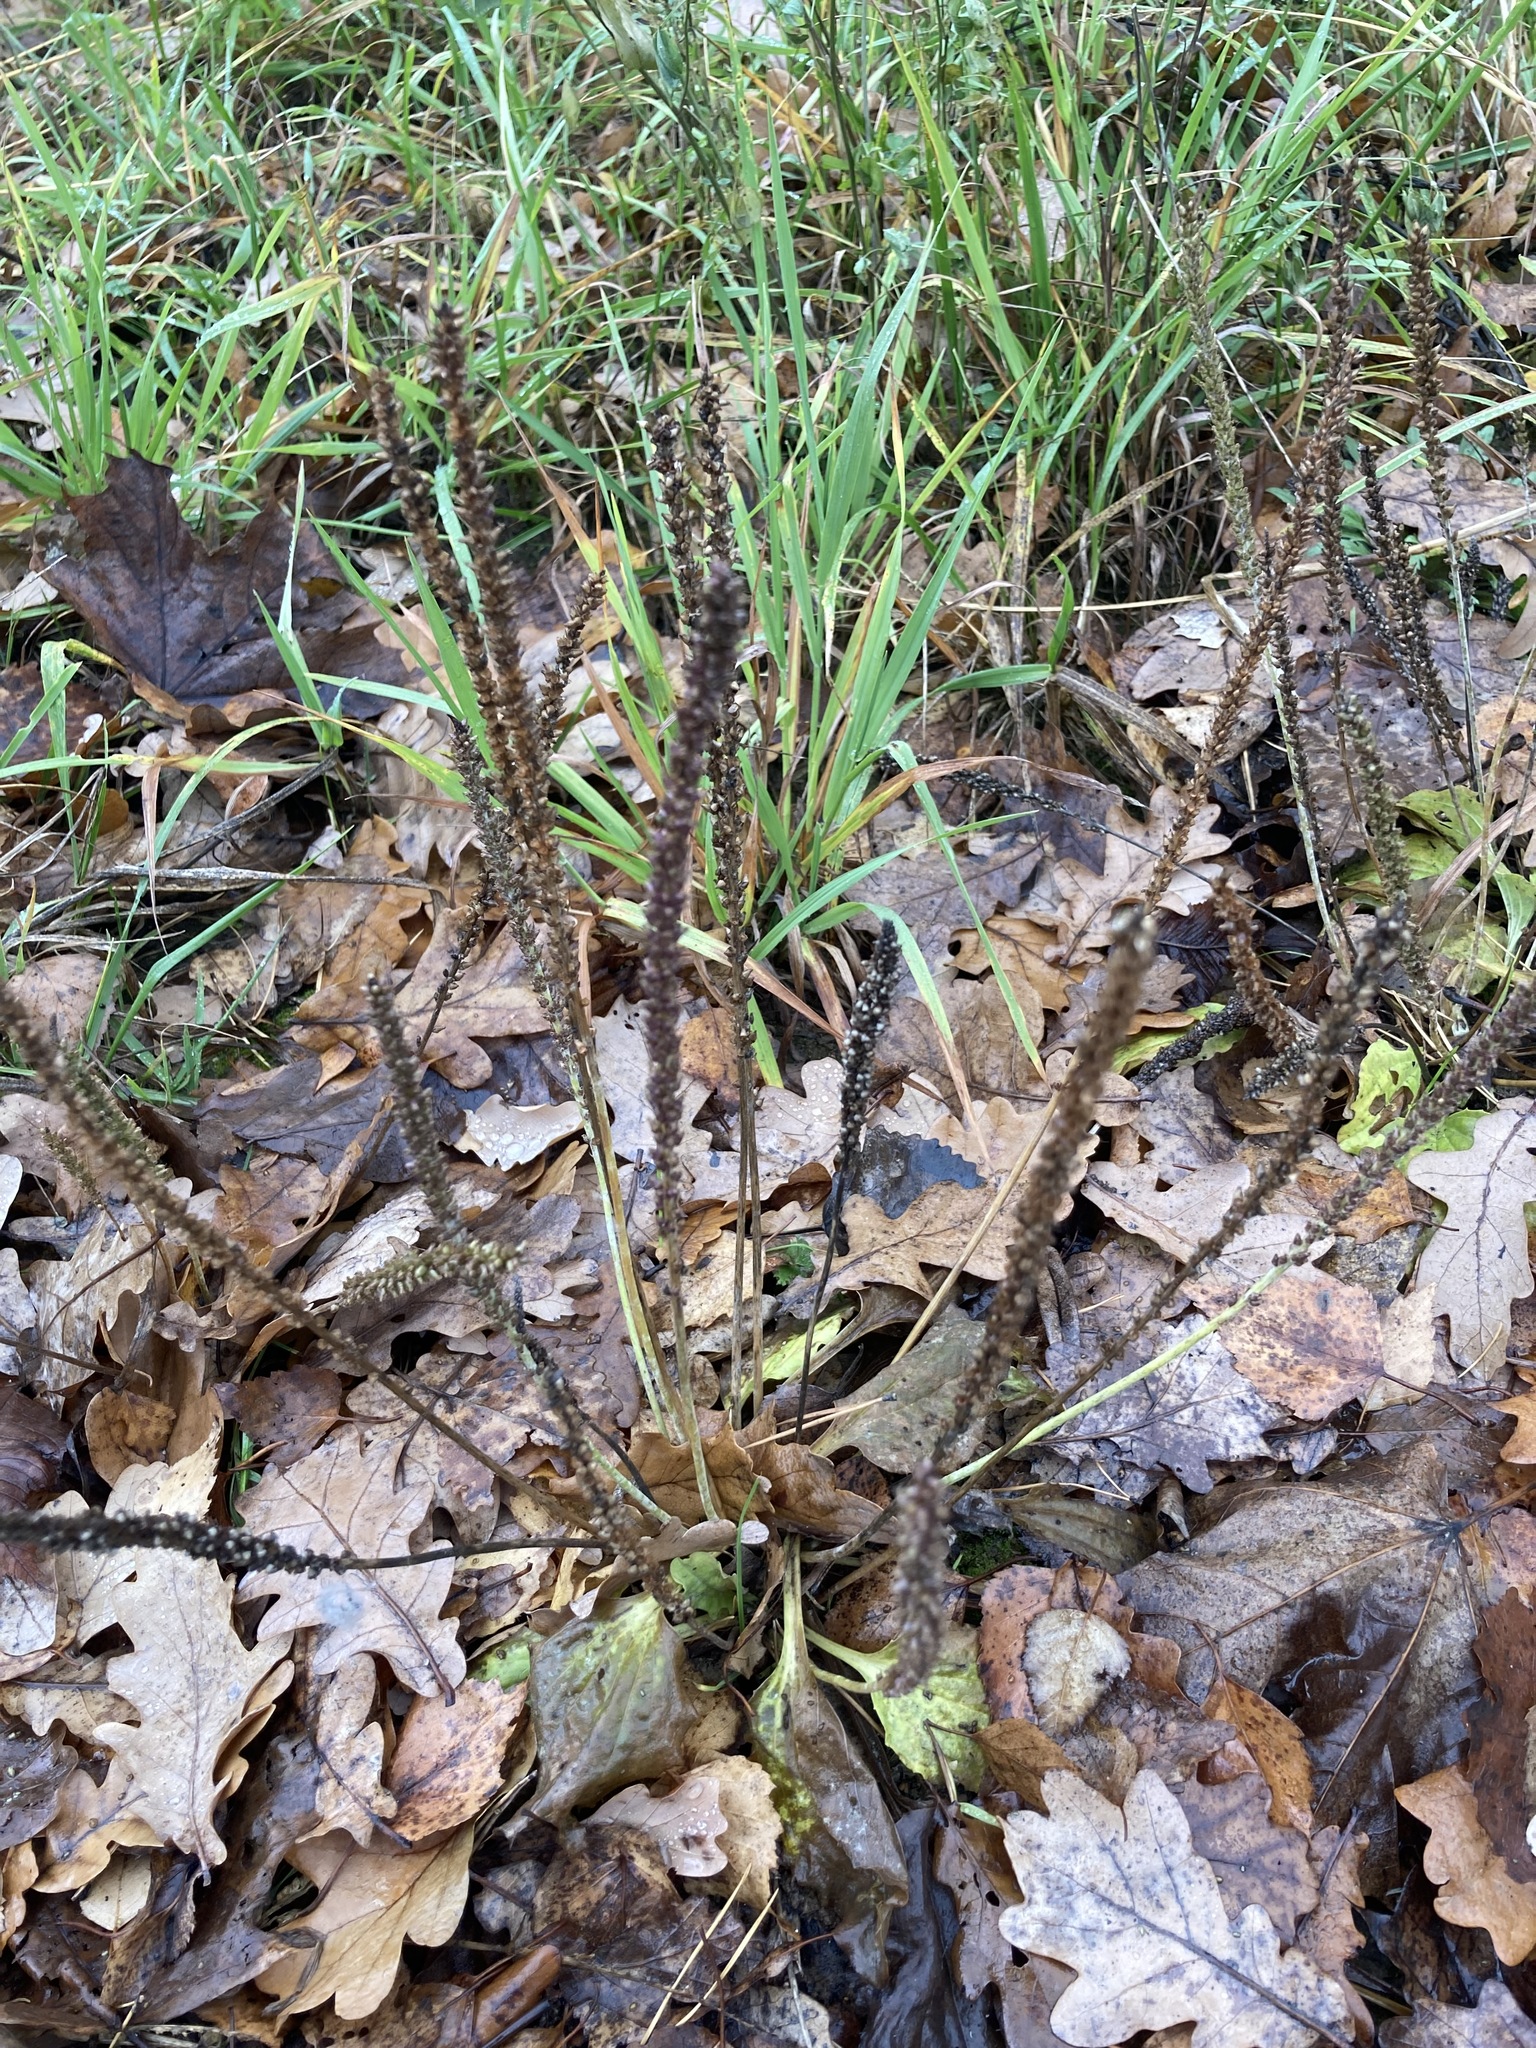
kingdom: Plantae
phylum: Tracheophyta
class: Magnoliopsida
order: Lamiales
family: Plantaginaceae
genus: Plantago
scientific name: Plantago major
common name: Common plantain
